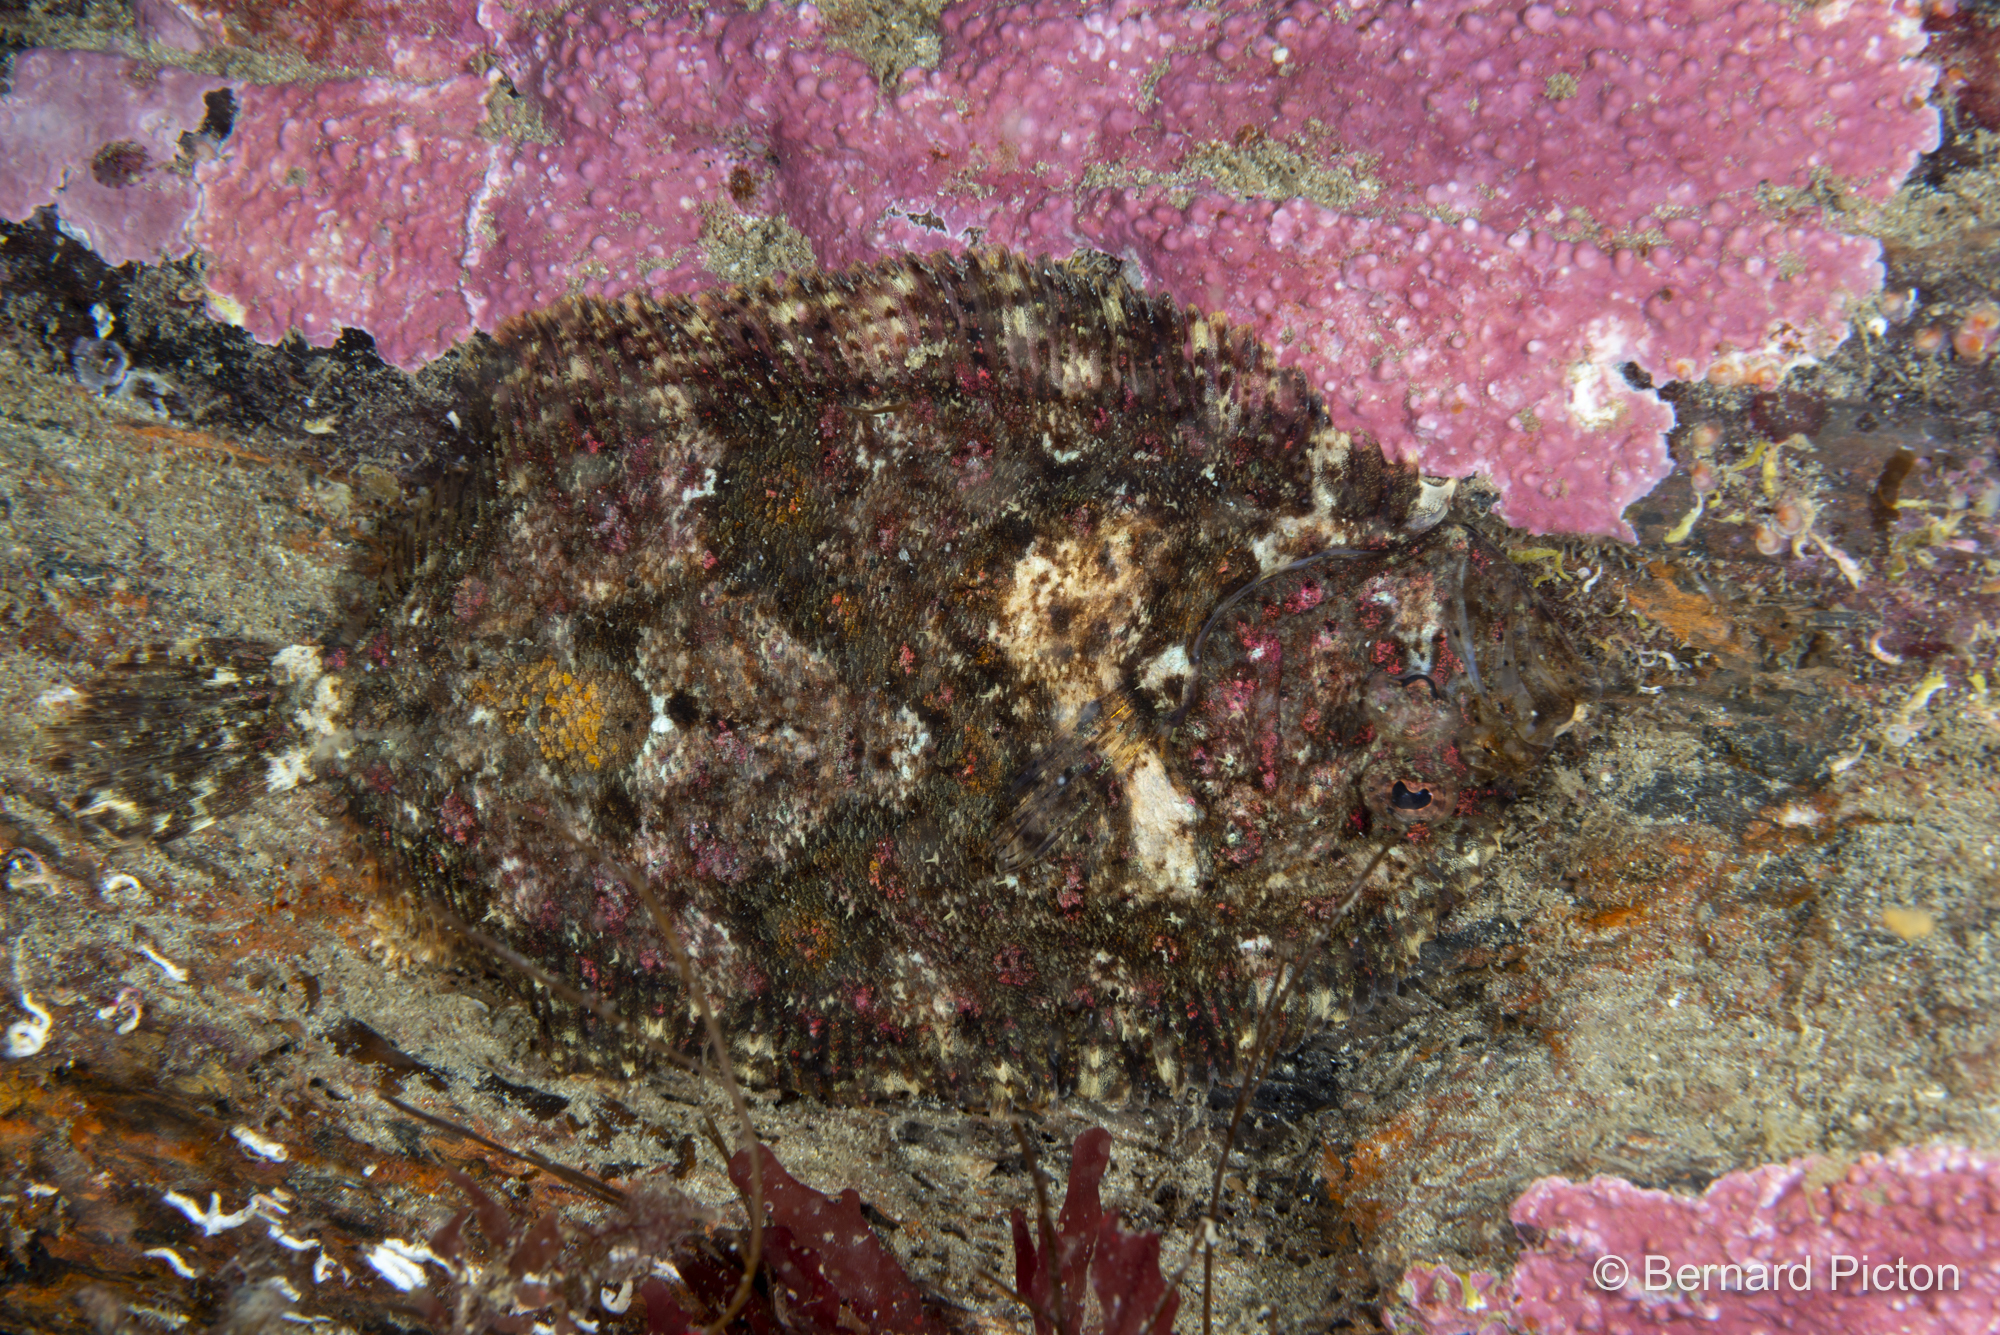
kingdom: Animalia
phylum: Chordata
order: Pleuronectiformes
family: Scophthalmidae
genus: Zeugopterus
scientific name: Zeugopterus regius
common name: Eckström's topknot
